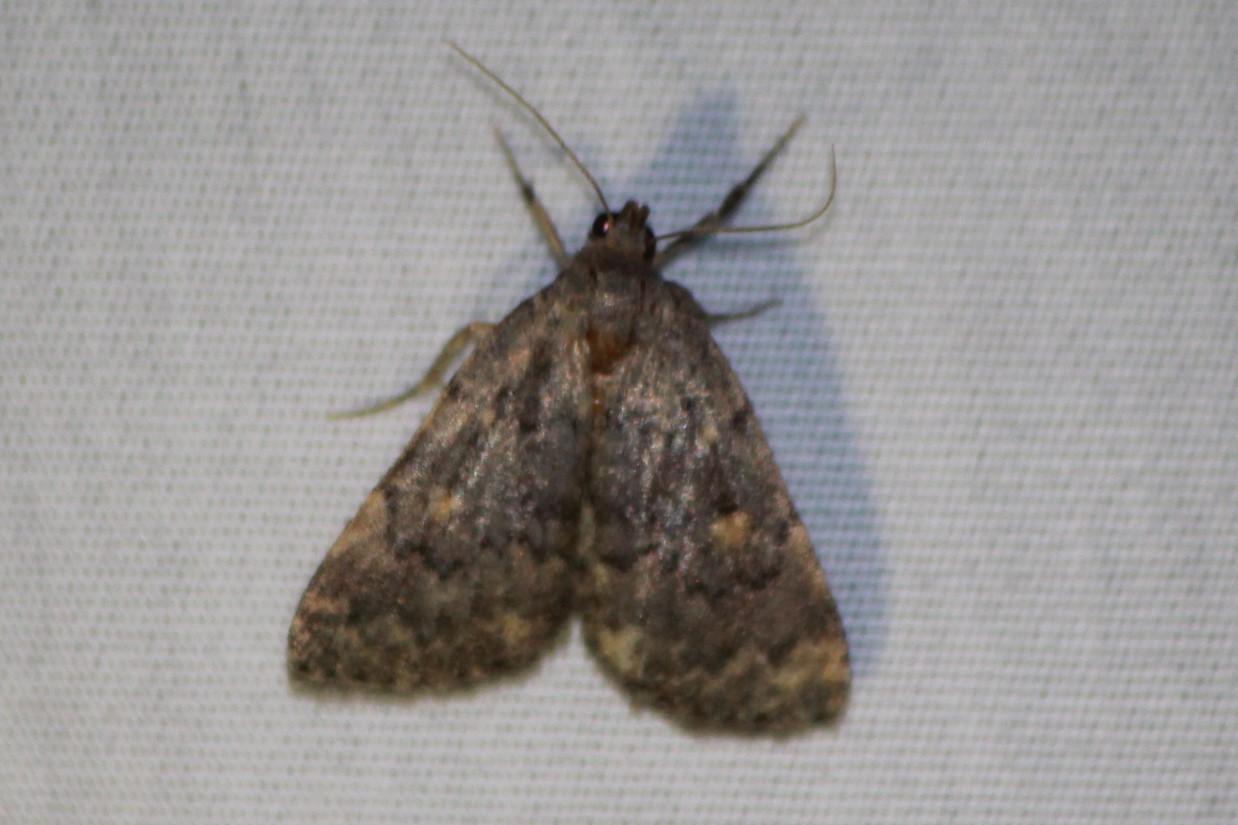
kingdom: Animalia
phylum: Arthropoda
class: Insecta
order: Lepidoptera
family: Erebidae
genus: Idia
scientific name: Idia aemula
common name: Common idia moth
